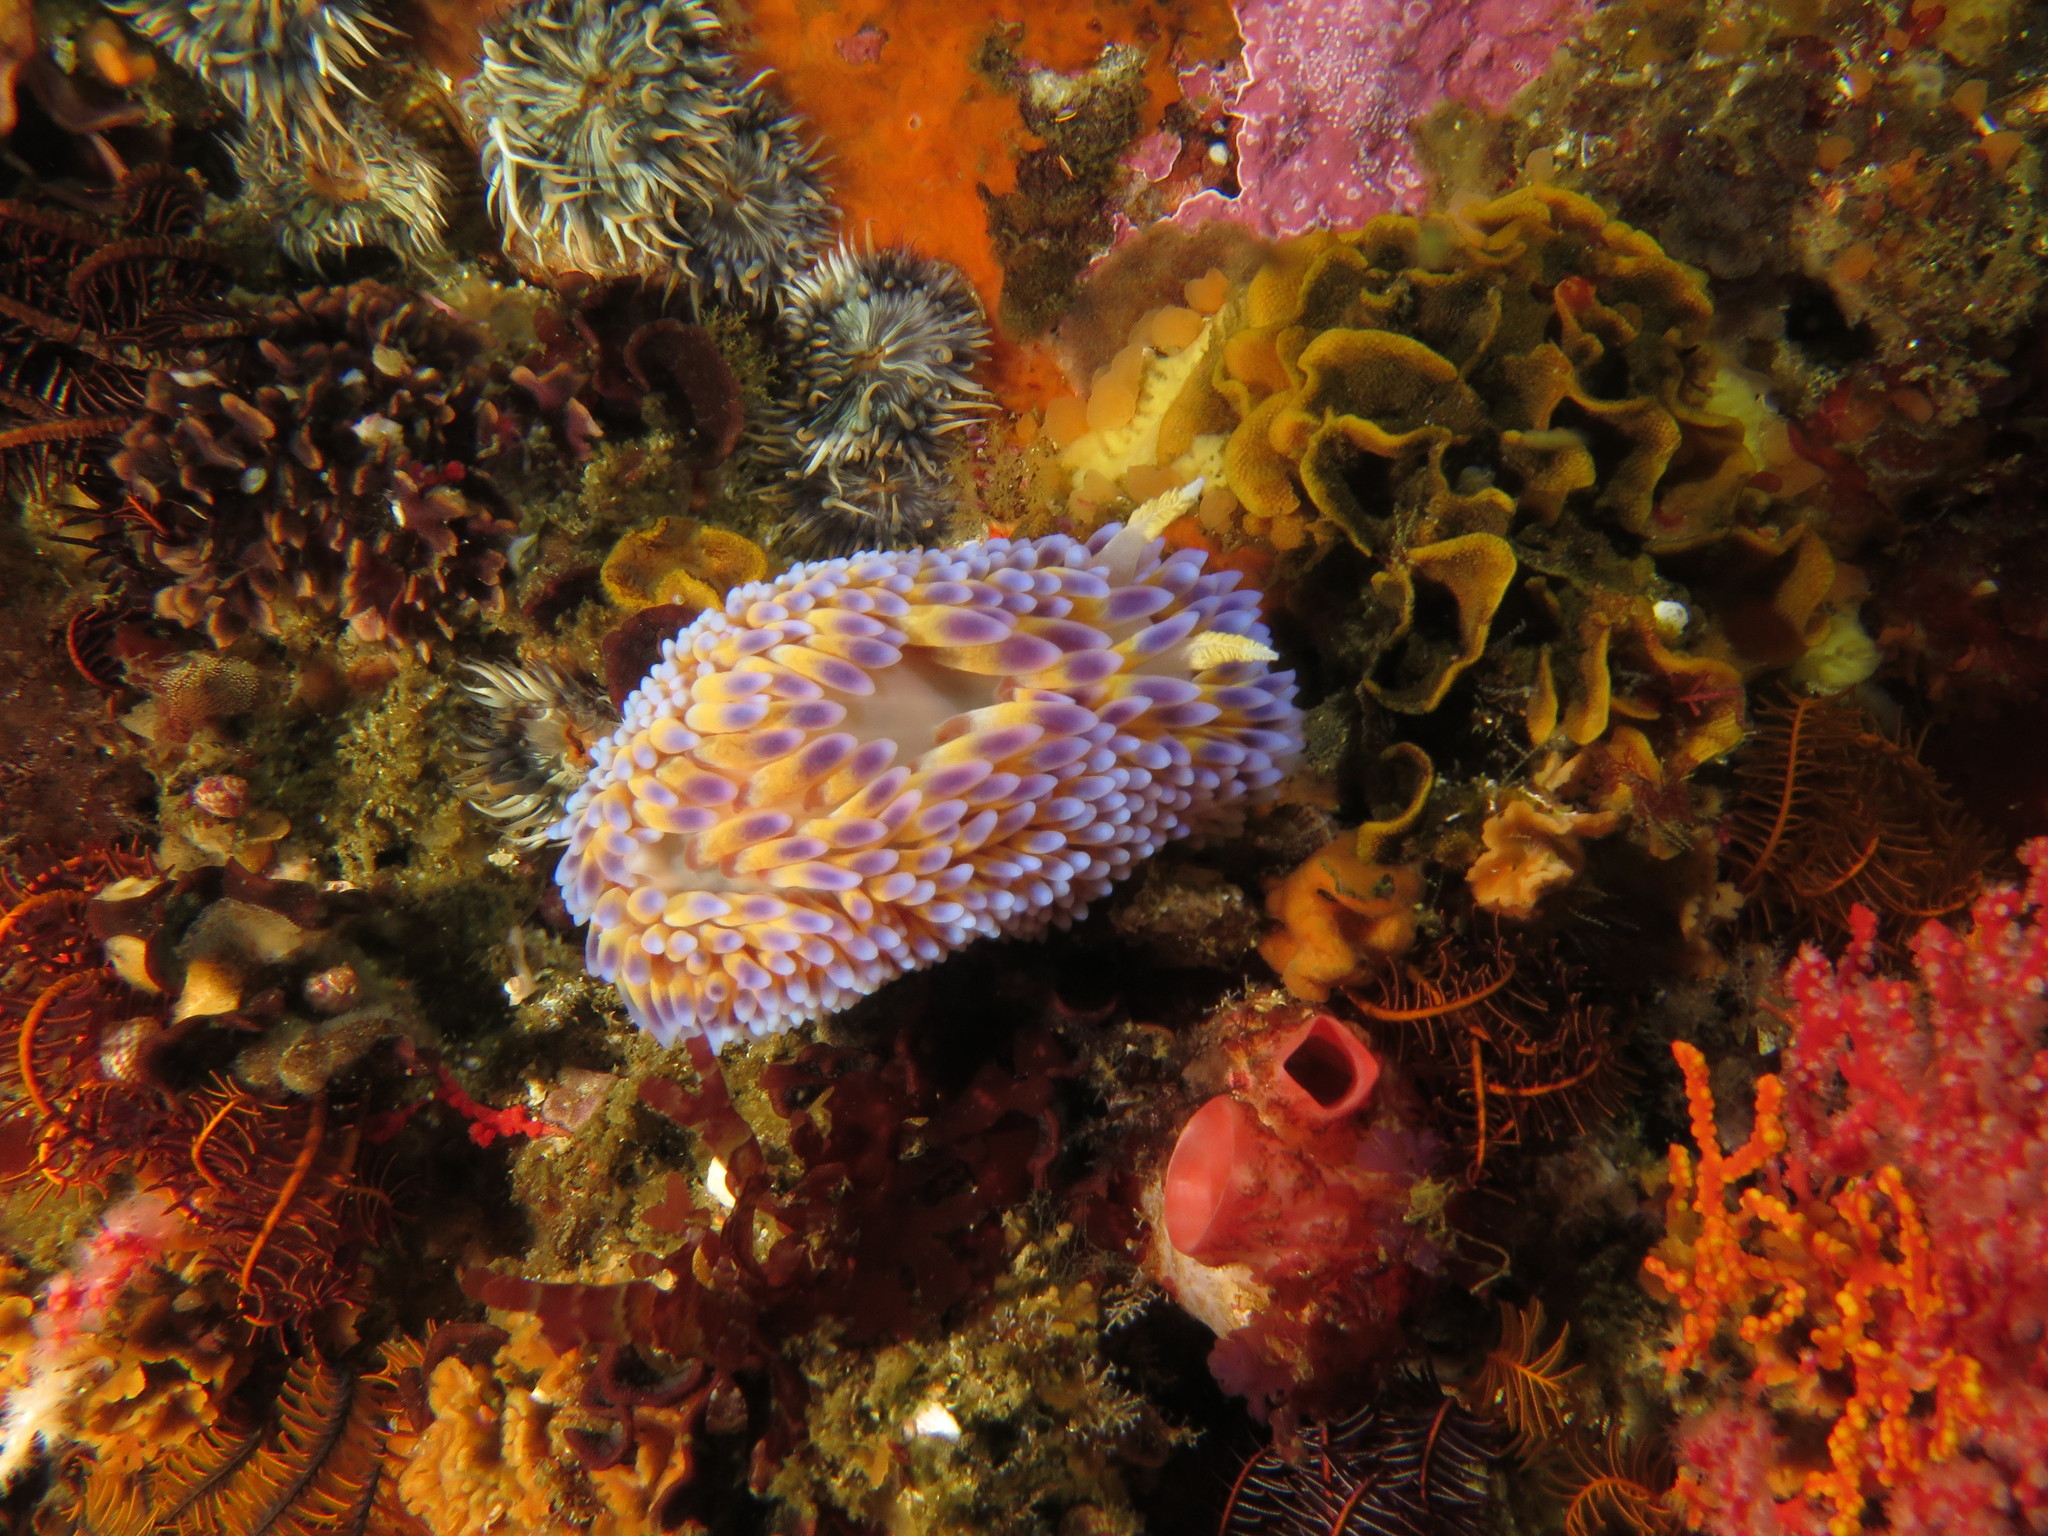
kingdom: Animalia
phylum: Mollusca
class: Gastropoda
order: Nudibranchia
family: Janolidae
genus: Bonisa
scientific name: Bonisa nakaza
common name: Gas flame nudibranch
